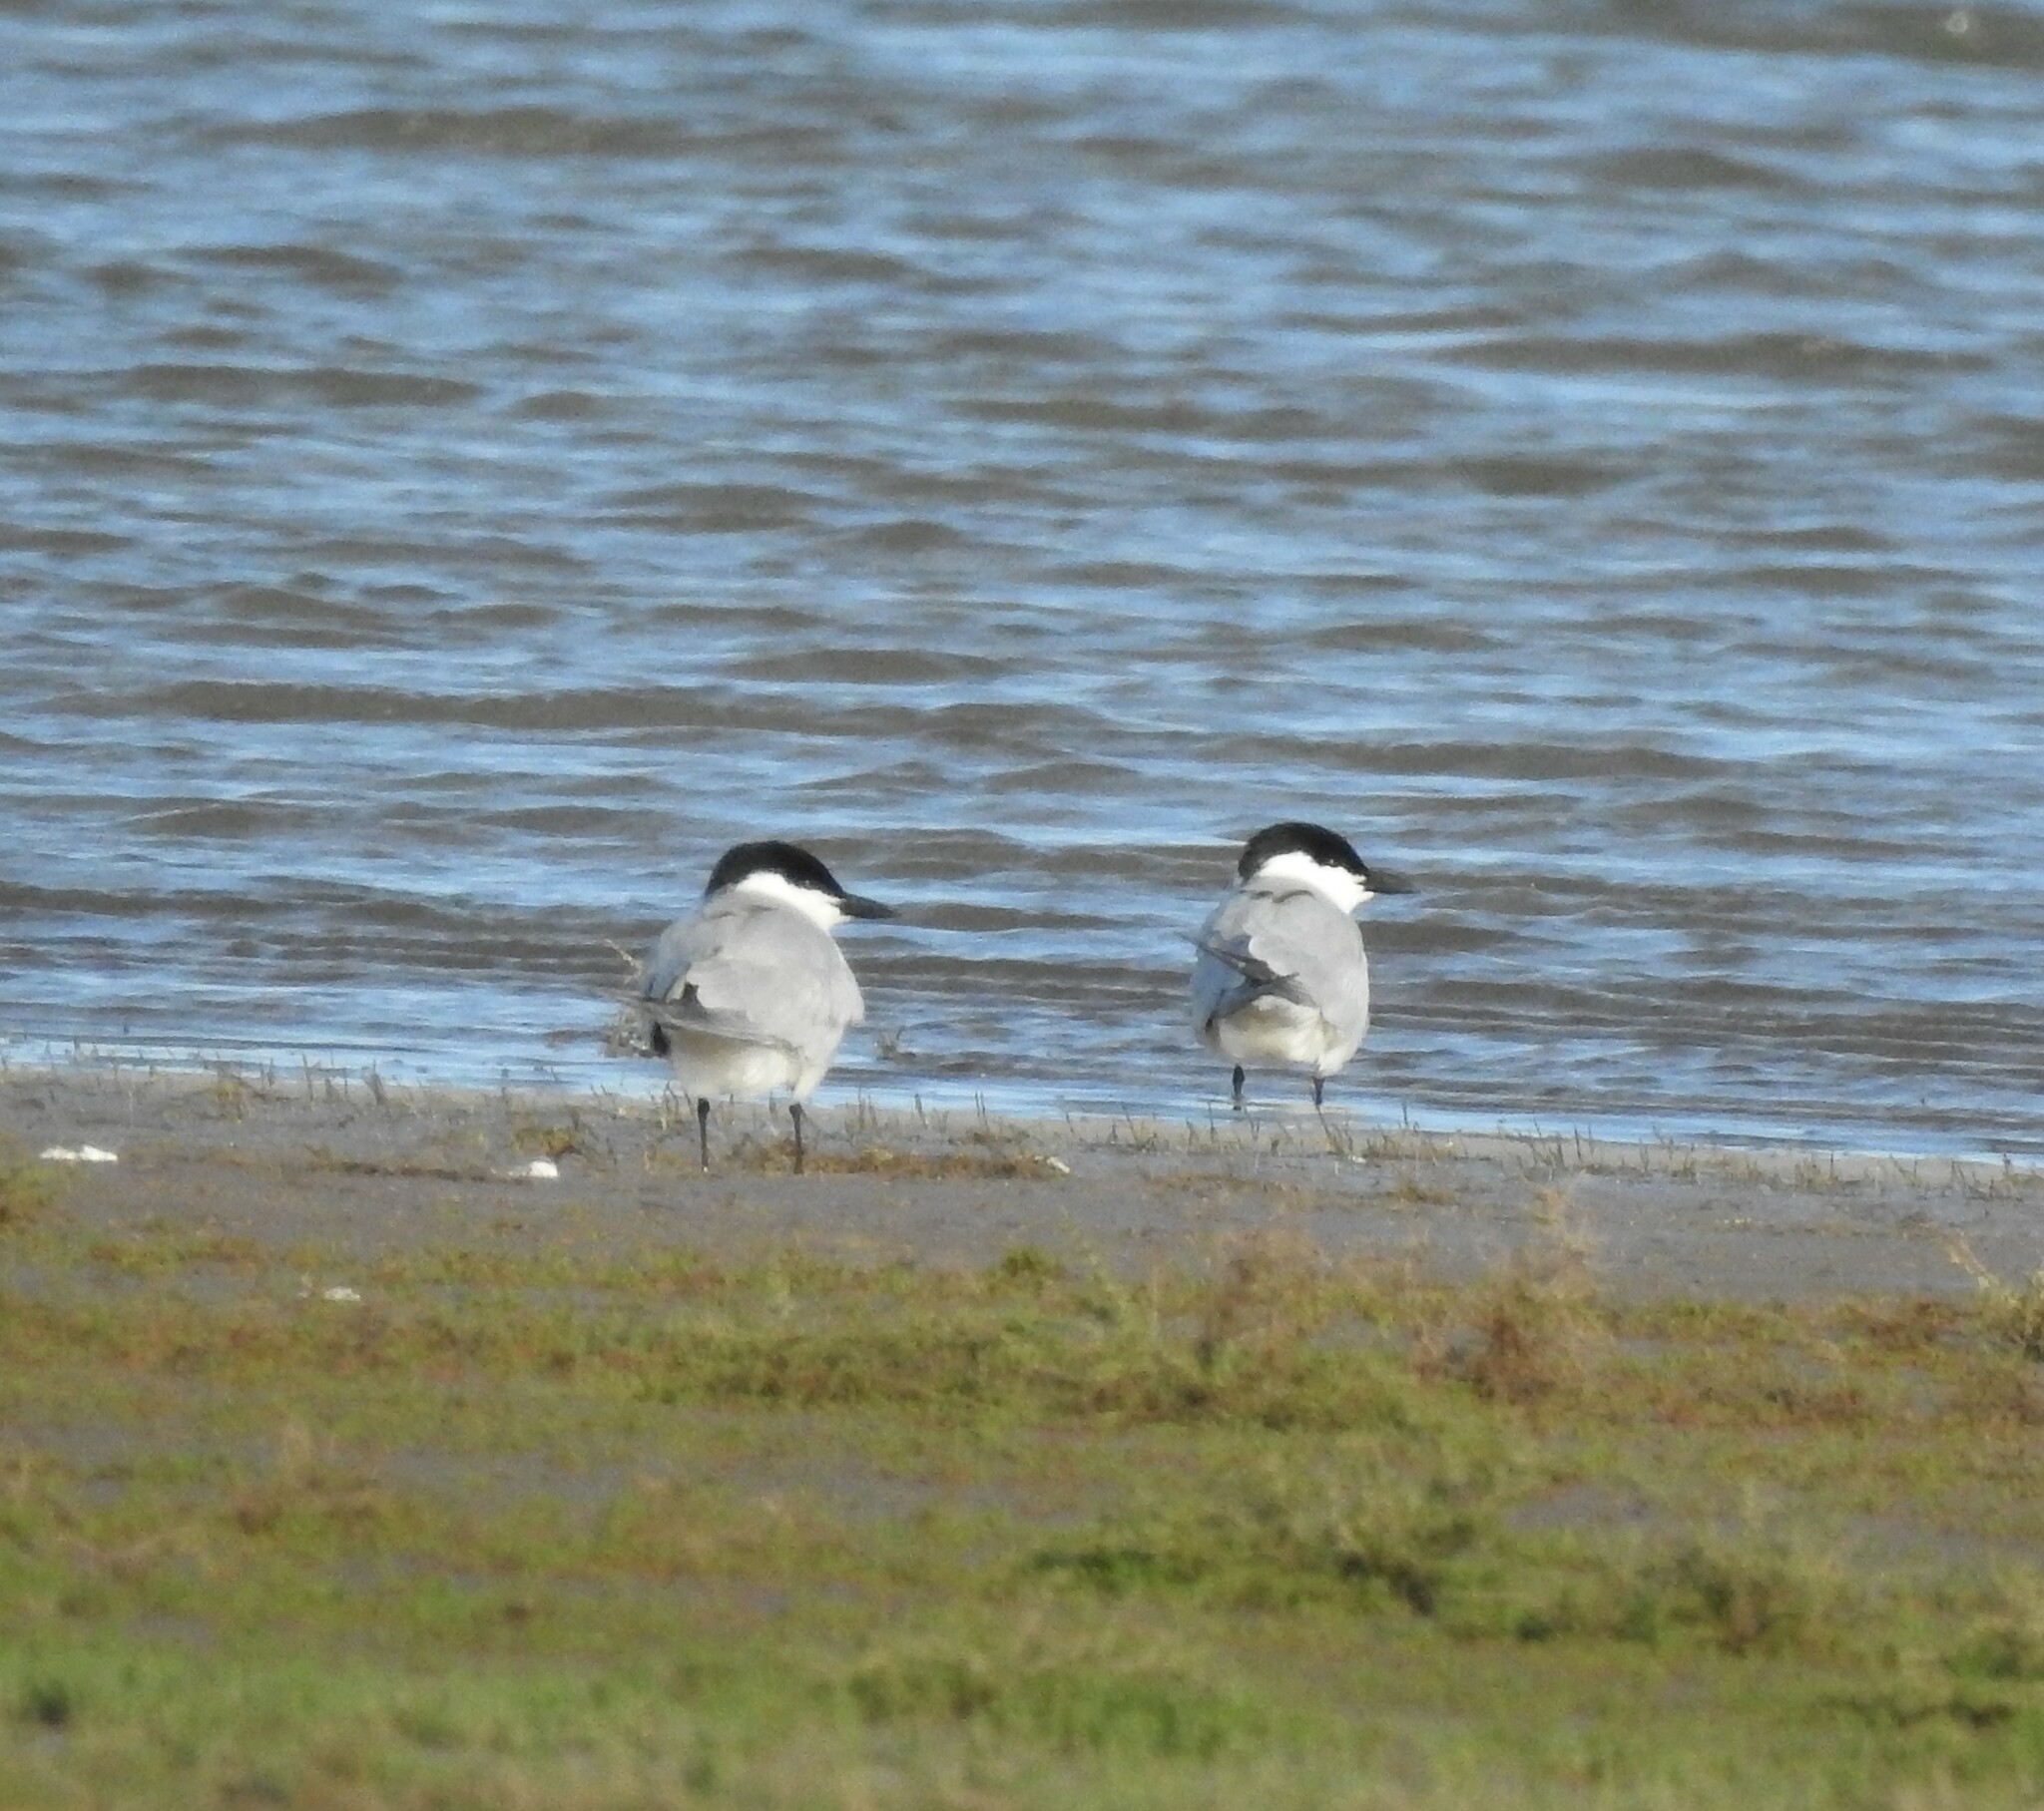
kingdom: Animalia
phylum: Chordata
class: Aves
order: Charadriiformes
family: Laridae
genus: Gelochelidon
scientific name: Gelochelidon nilotica
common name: Gull-billed tern
